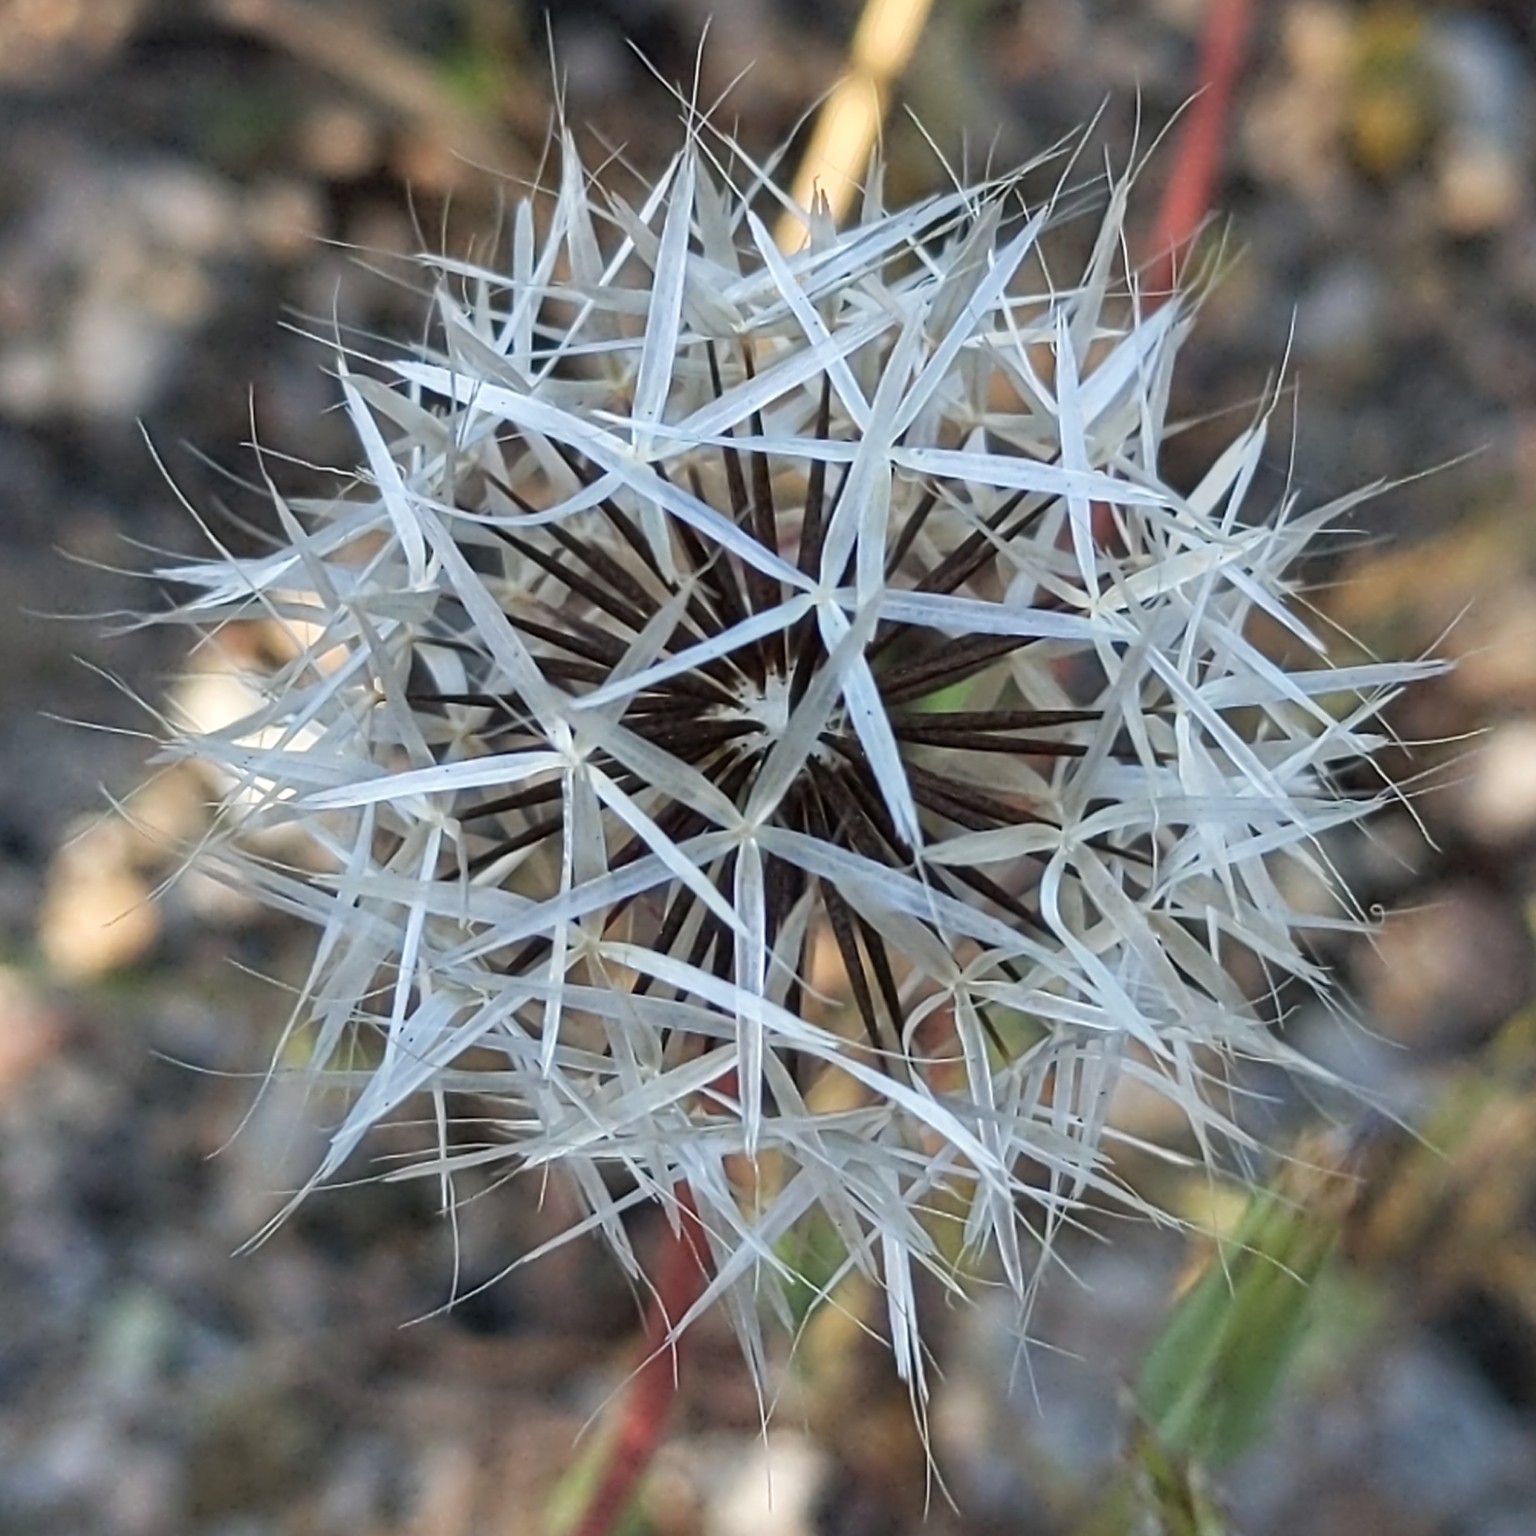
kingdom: Plantae
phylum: Tracheophyta
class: Magnoliopsida
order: Asterales
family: Asteraceae
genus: Microseris
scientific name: Microseris lindleyi
